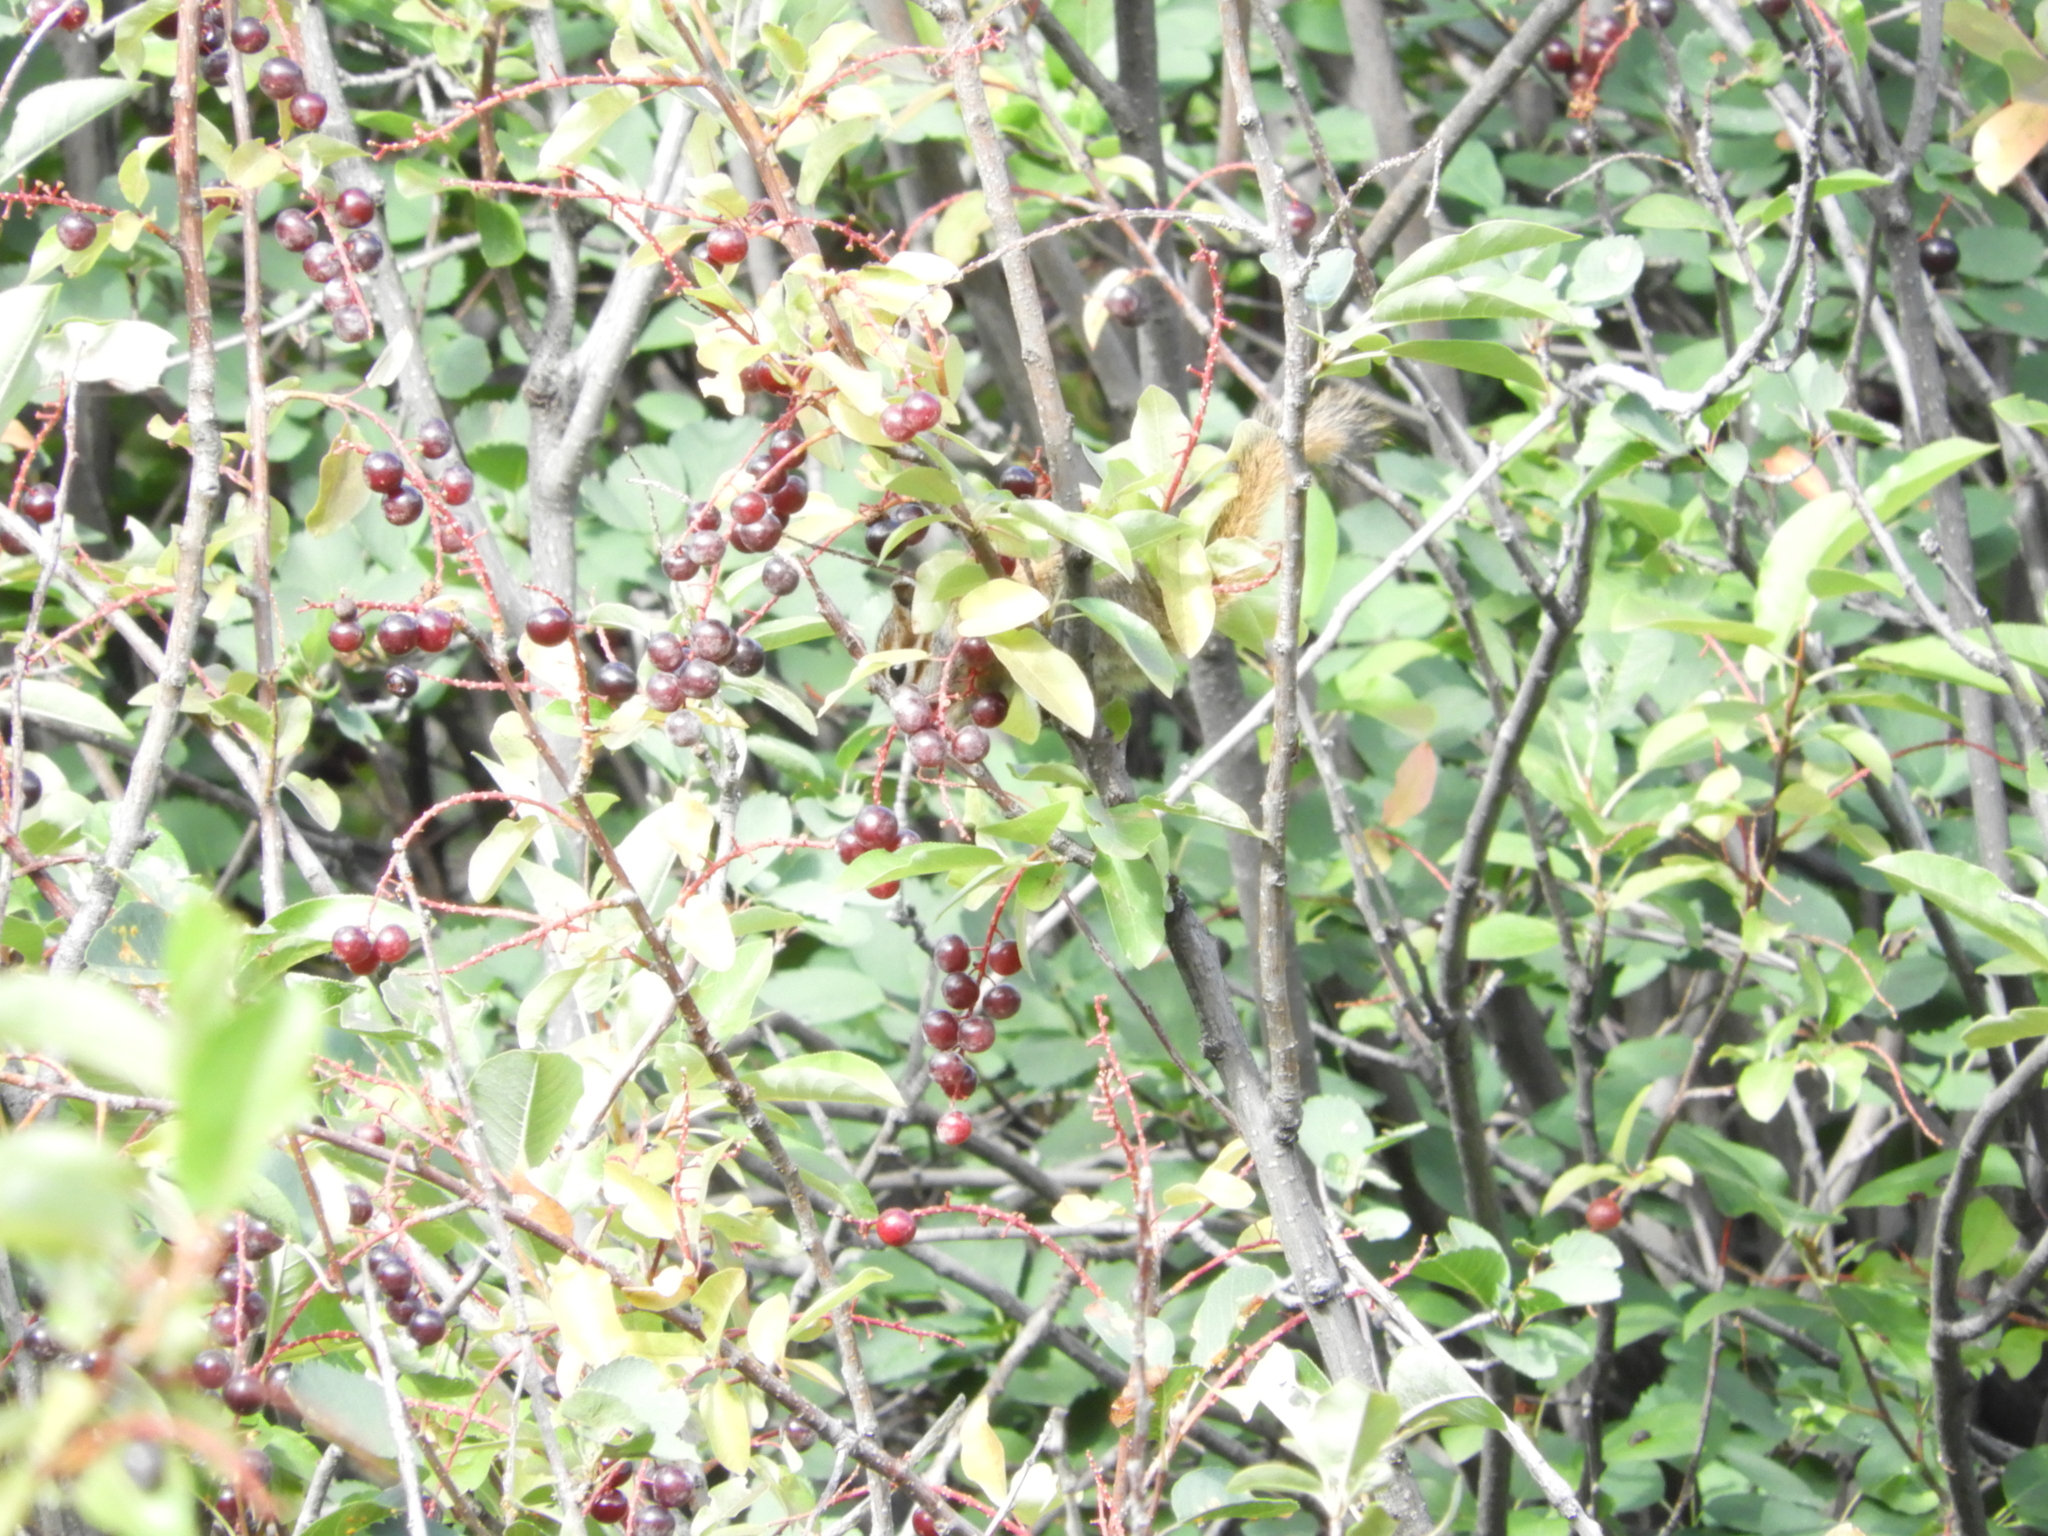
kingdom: Plantae
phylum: Tracheophyta
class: Magnoliopsida
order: Rosales
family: Rosaceae
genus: Prunus
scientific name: Prunus virginiana
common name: Chokecherry
